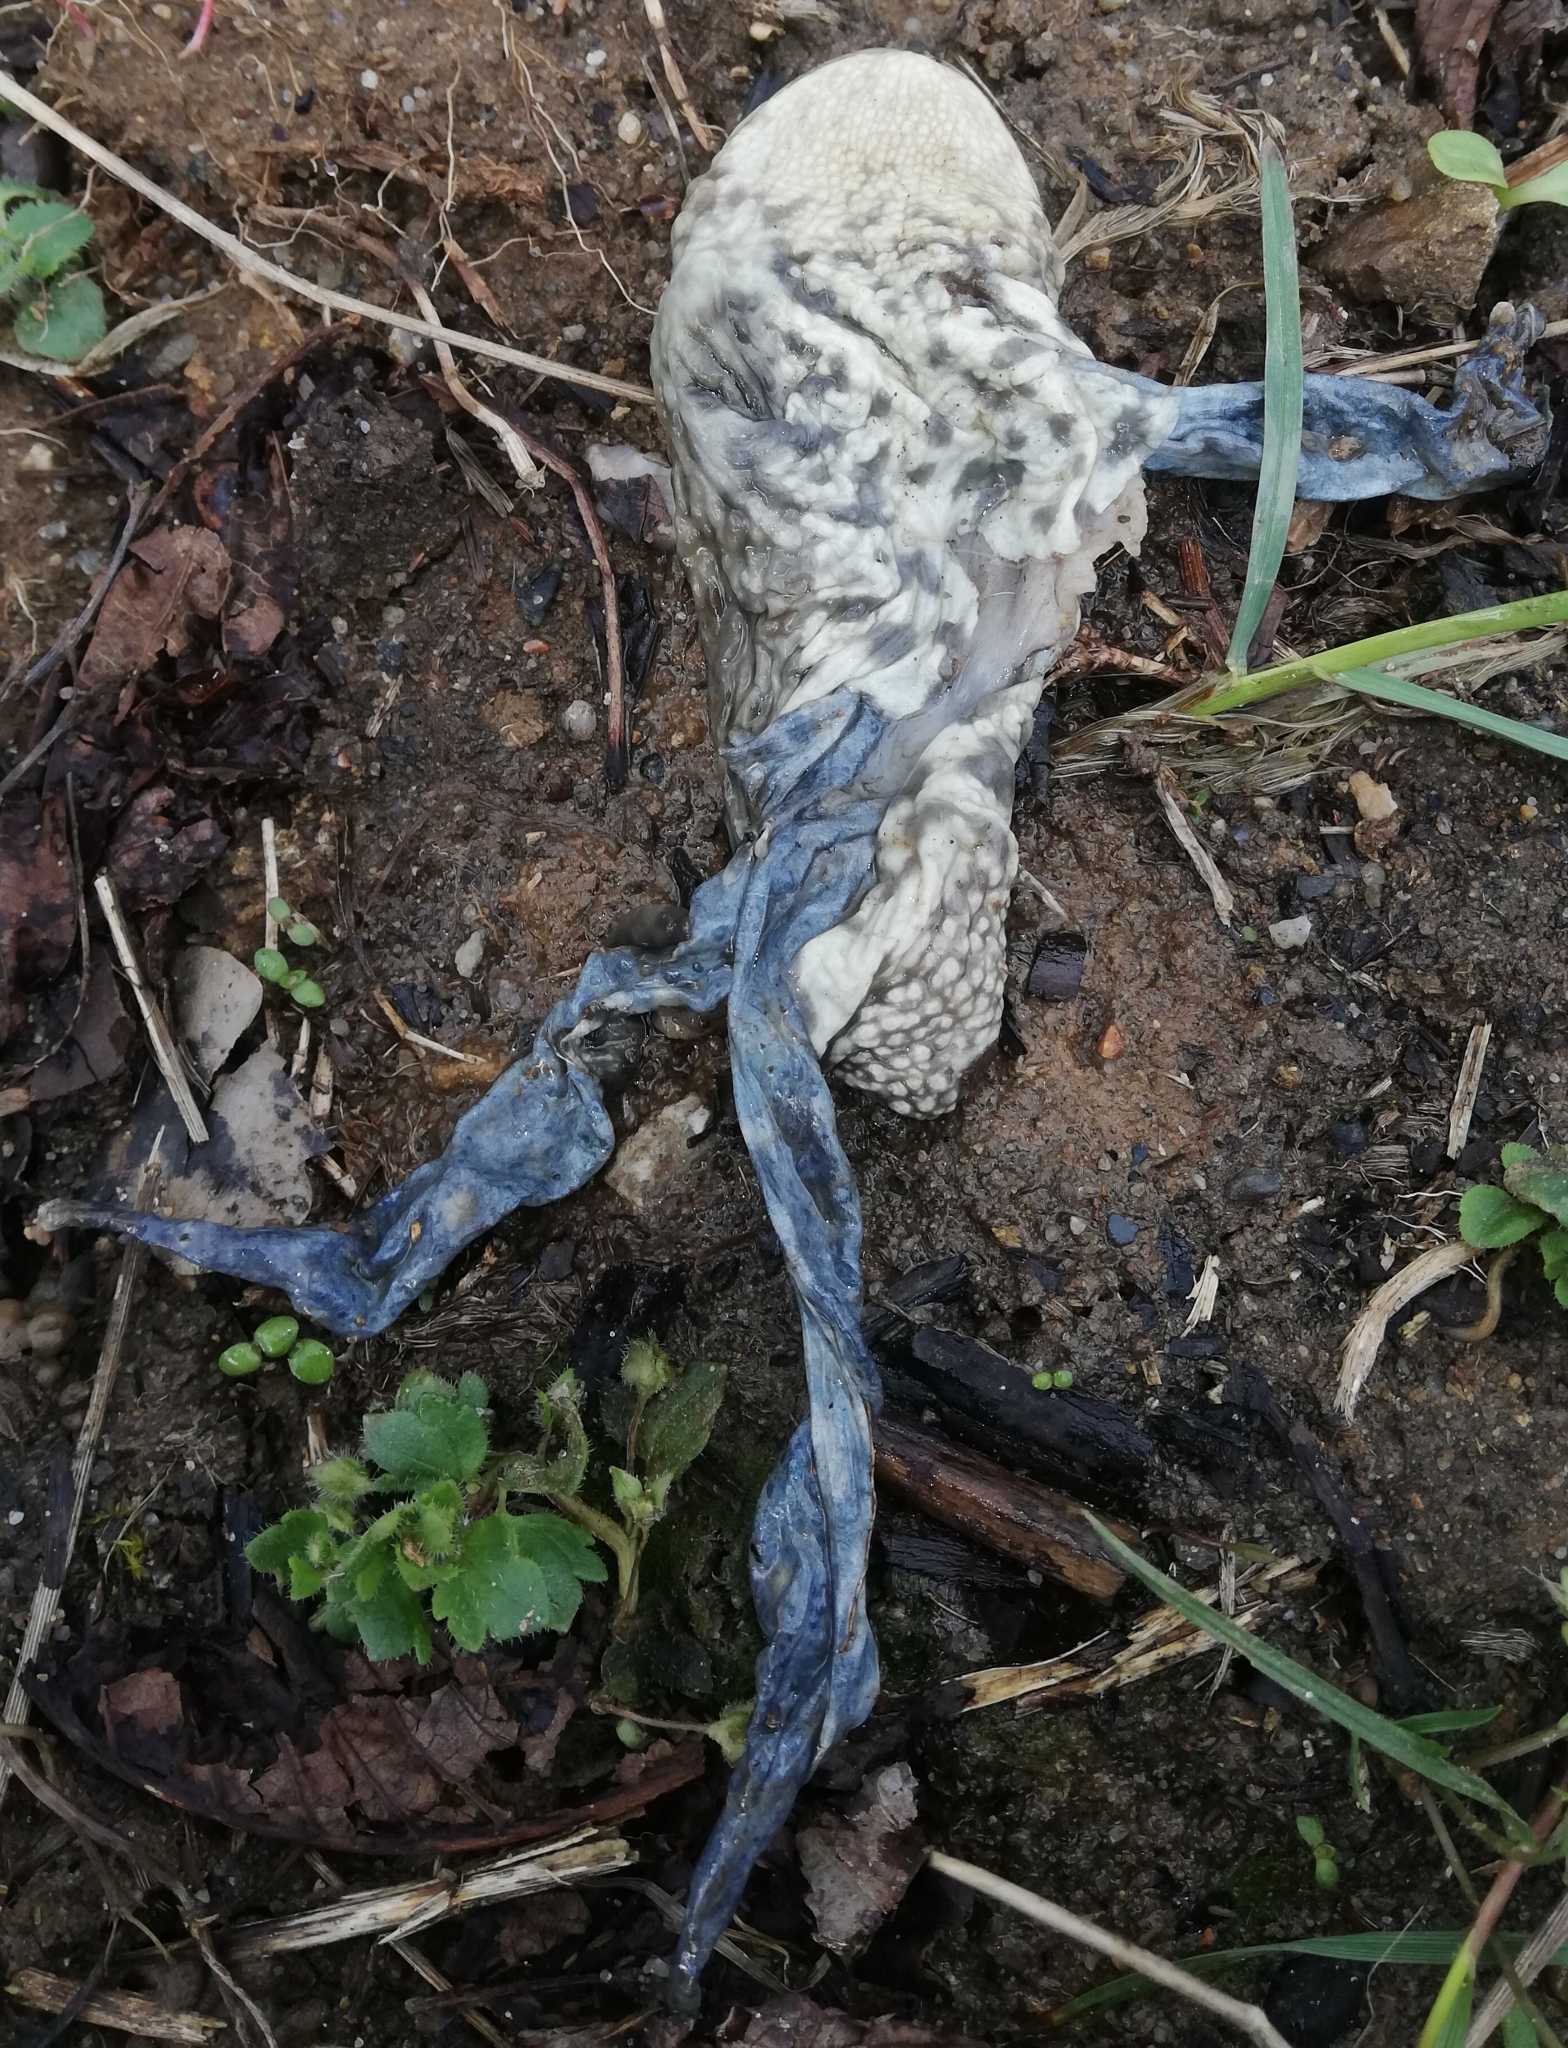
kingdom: Animalia
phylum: Chordata
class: Amphibia
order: Anura
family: Bufonidae
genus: Bufo
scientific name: Bufo bufo
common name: Common toad
